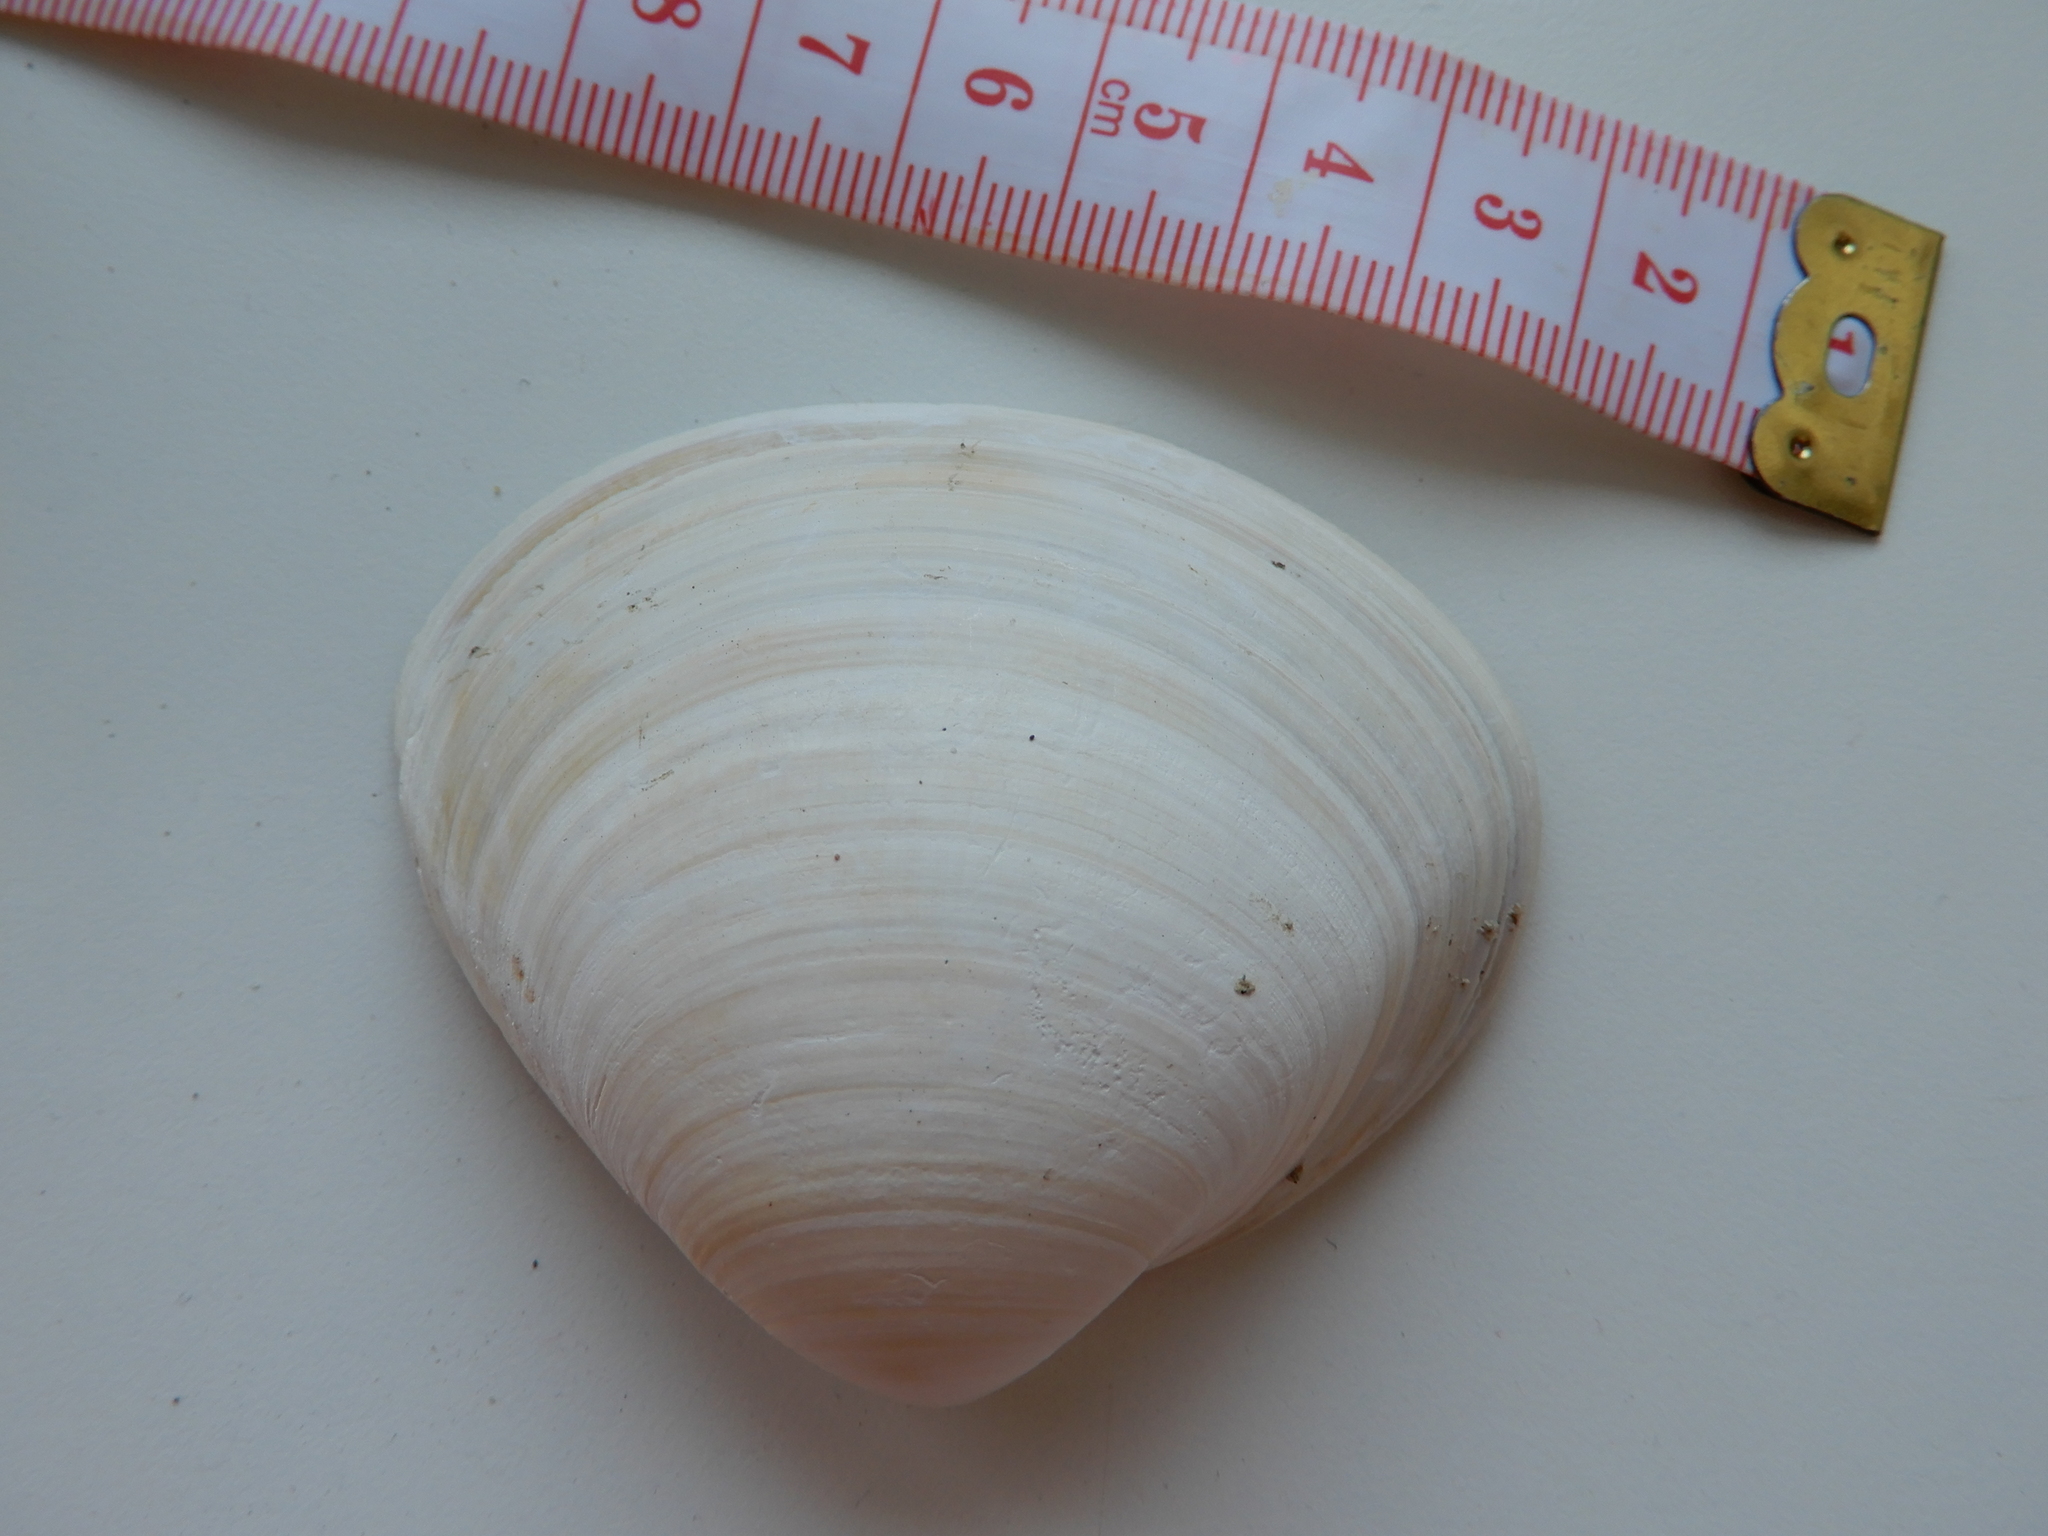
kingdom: Animalia
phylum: Mollusca
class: Bivalvia
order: Venerida
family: Mactridae
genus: Mactra
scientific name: Mactra stultorum
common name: Rayed trough shell
